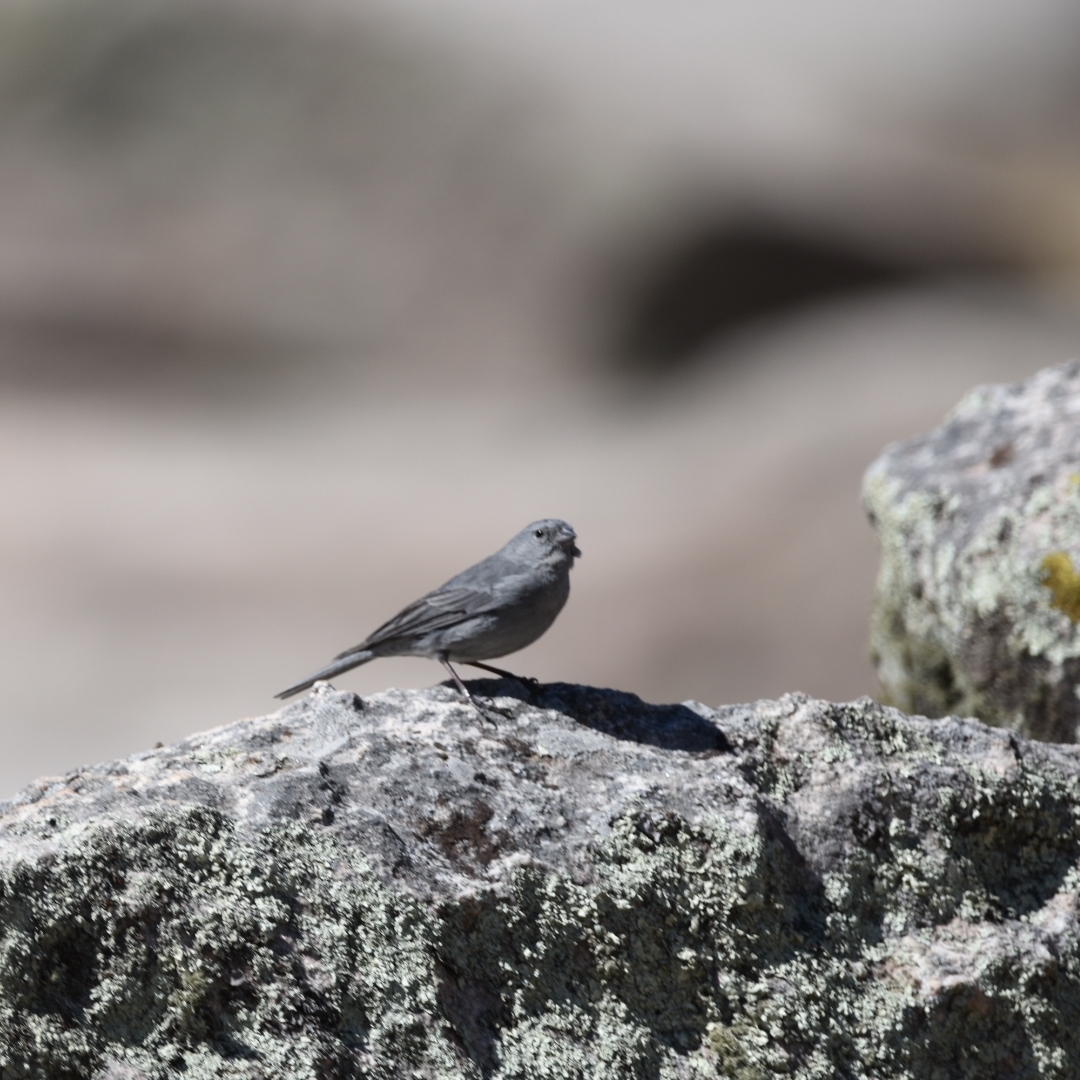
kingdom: Animalia
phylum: Chordata
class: Aves
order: Passeriformes
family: Thraupidae
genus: Geospizopsis
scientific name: Geospizopsis unicolor
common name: Plumbeous sierra-finch
